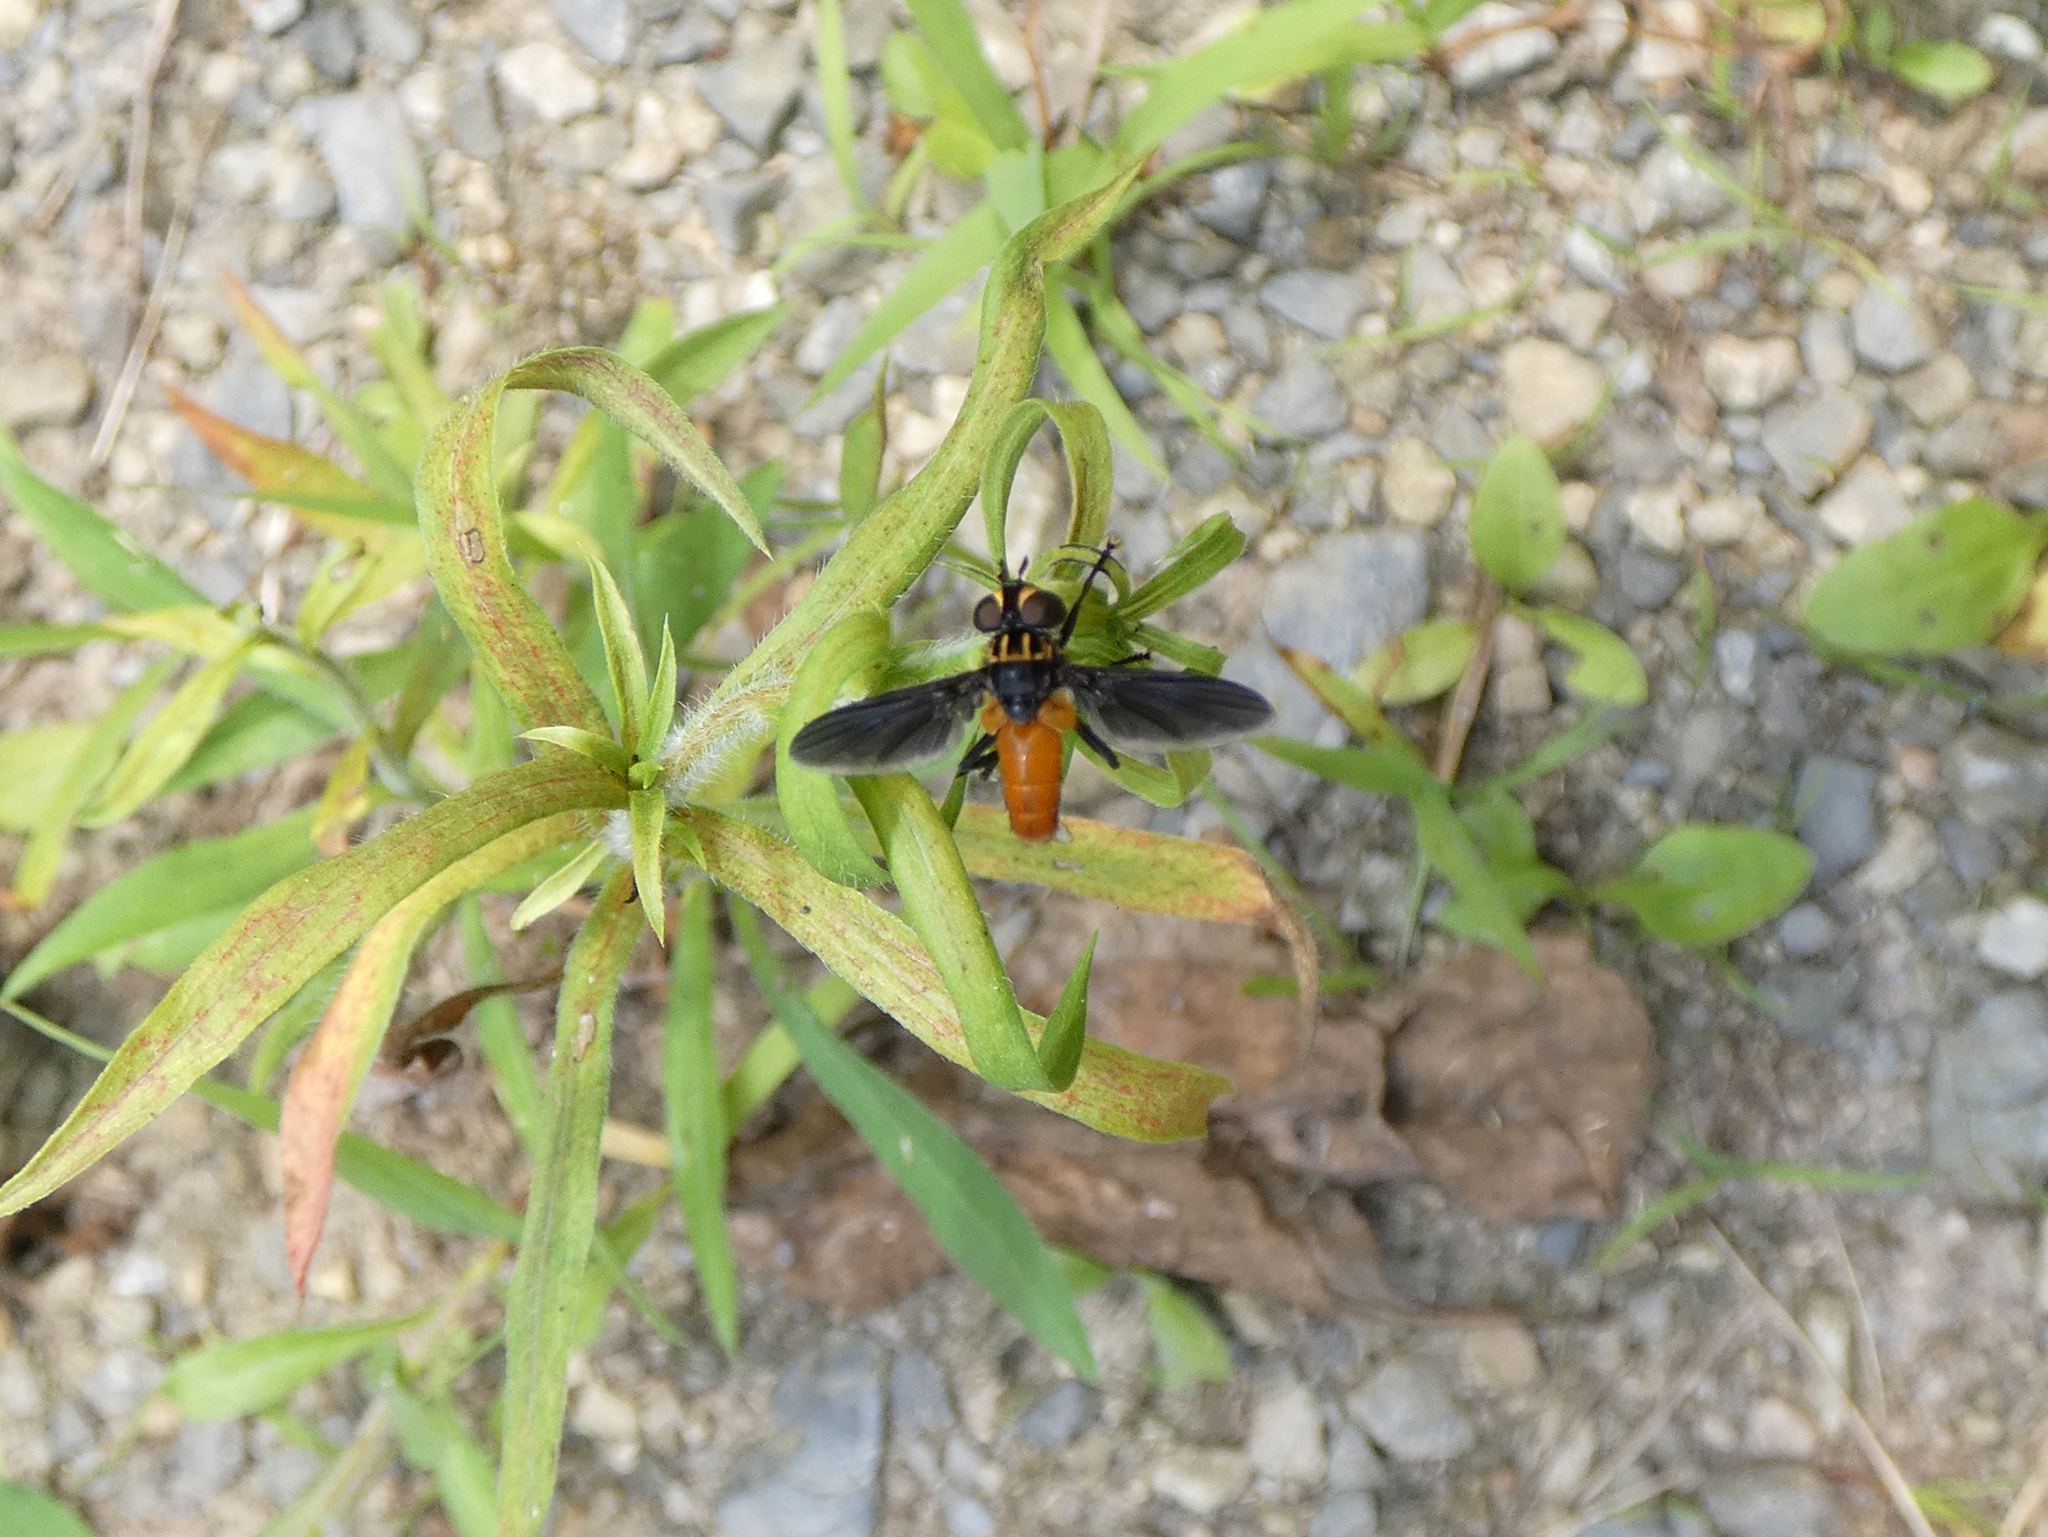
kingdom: Animalia
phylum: Arthropoda
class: Insecta
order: Diptera
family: Tachinidae
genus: Trichopoda
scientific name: Trichopoda pennipes
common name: Tachinid fly
